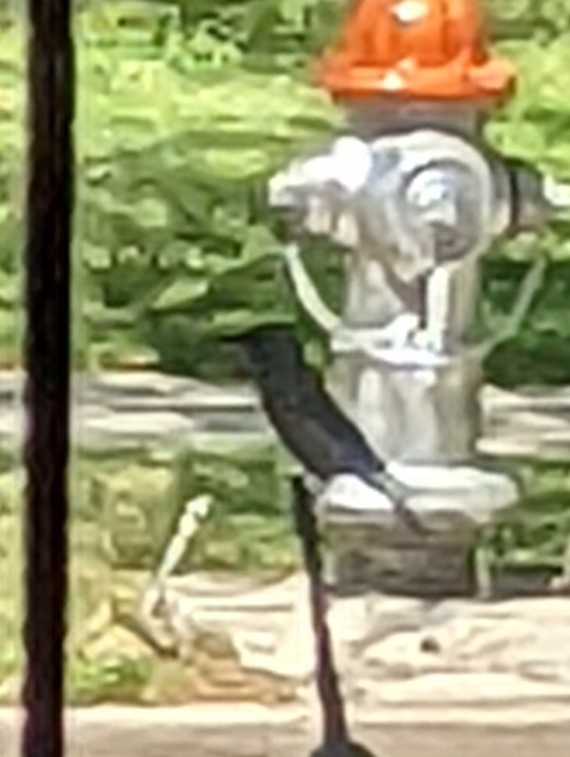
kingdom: Animalia
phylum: Chordata
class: Aves
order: Passeriformes
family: Turdidae
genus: Sialia
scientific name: Sialia mexicana
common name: Western bluebird
